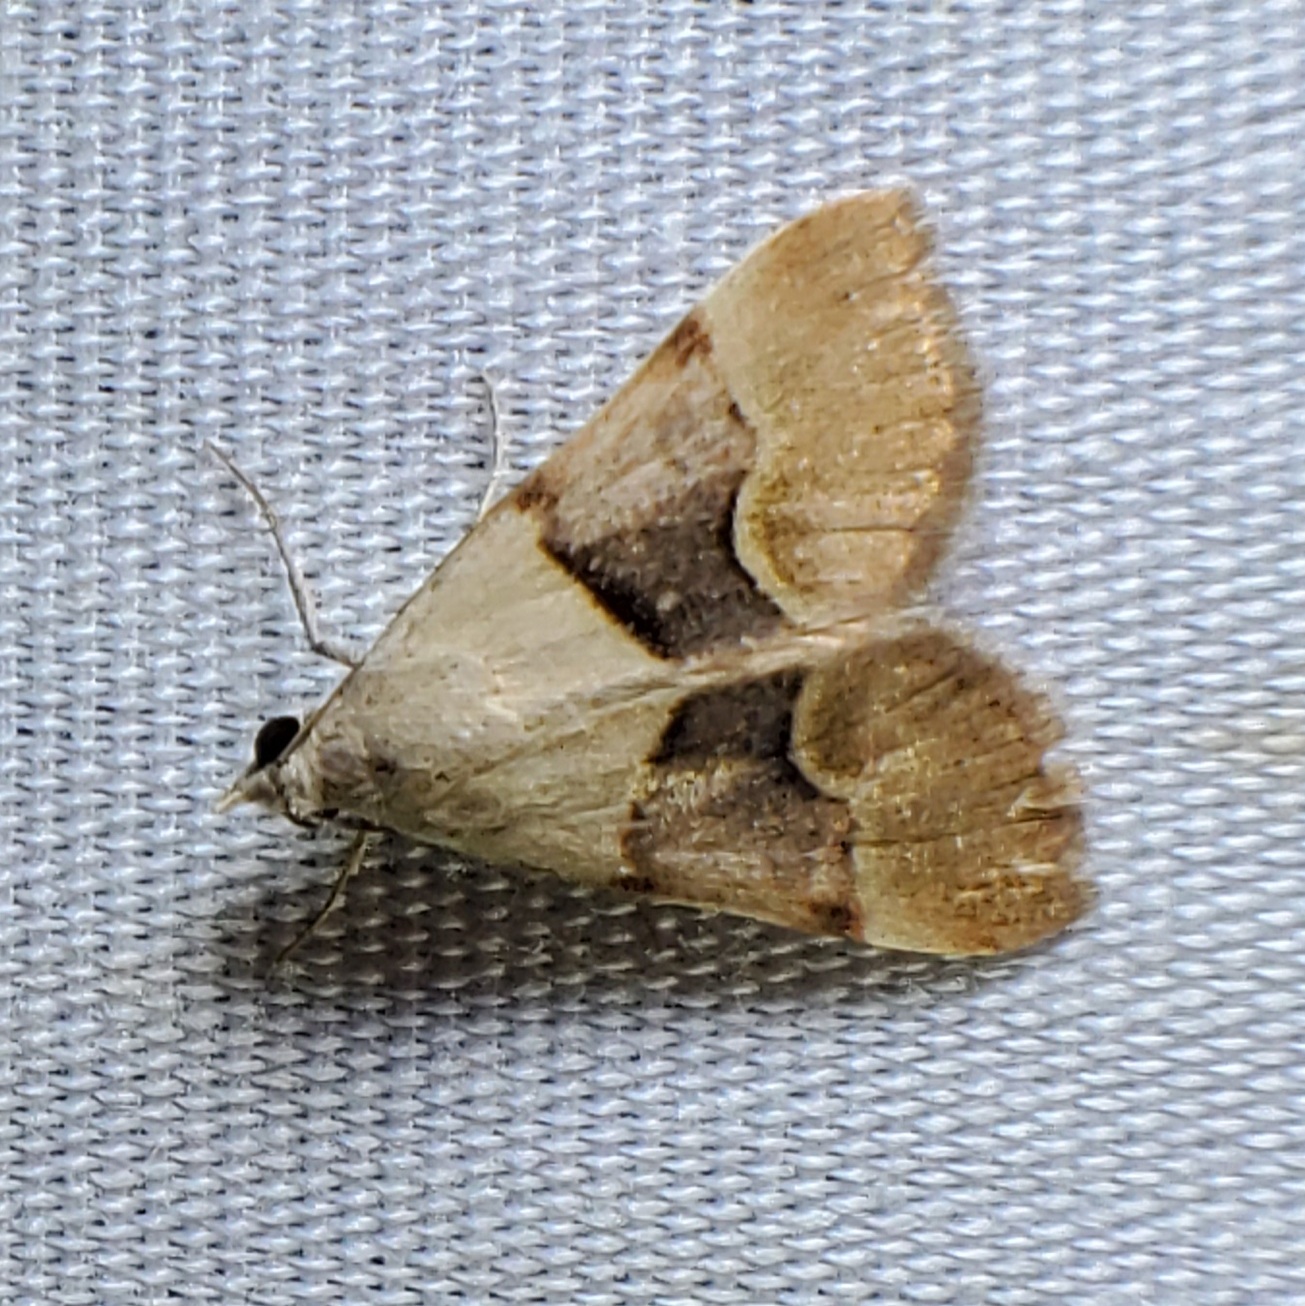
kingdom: Animalia
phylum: Arthropoda
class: Insecta
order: Lepidoptera
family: Erebidae
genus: Hemeroplanis
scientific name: Hemeroplanis incusalis
